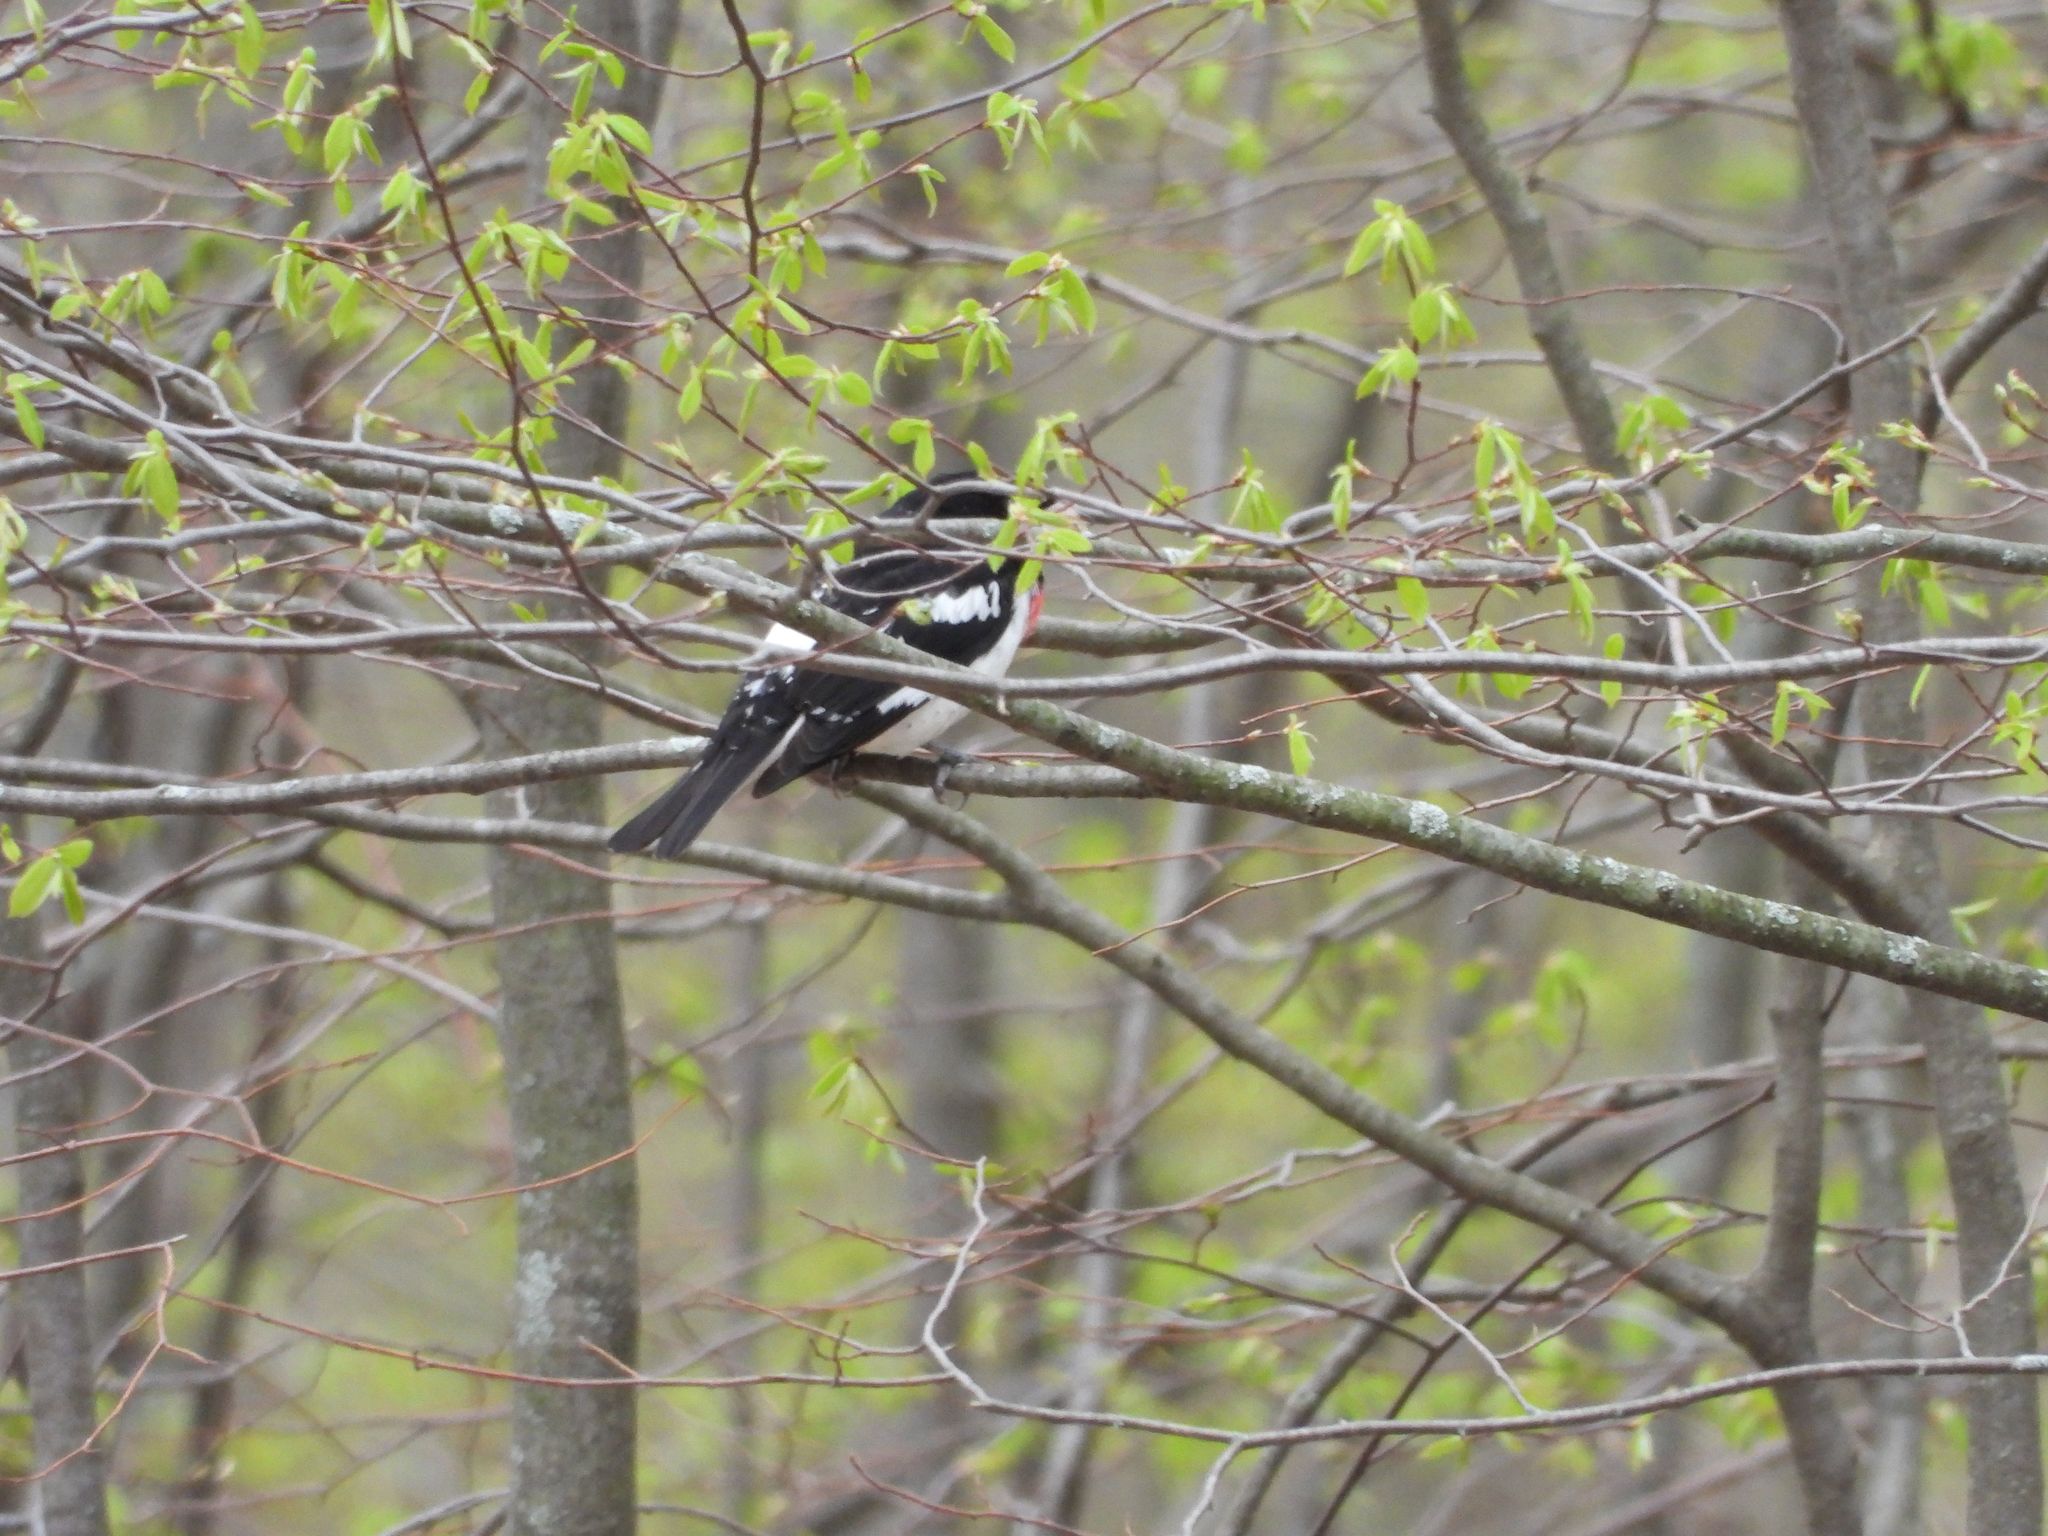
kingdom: Animalia
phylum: Chordata
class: Aves
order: Passeriformes
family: Cardinalidae
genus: Pheucticus
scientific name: Pheucticus ludovicianus
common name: Rose-breasted grosbeak
